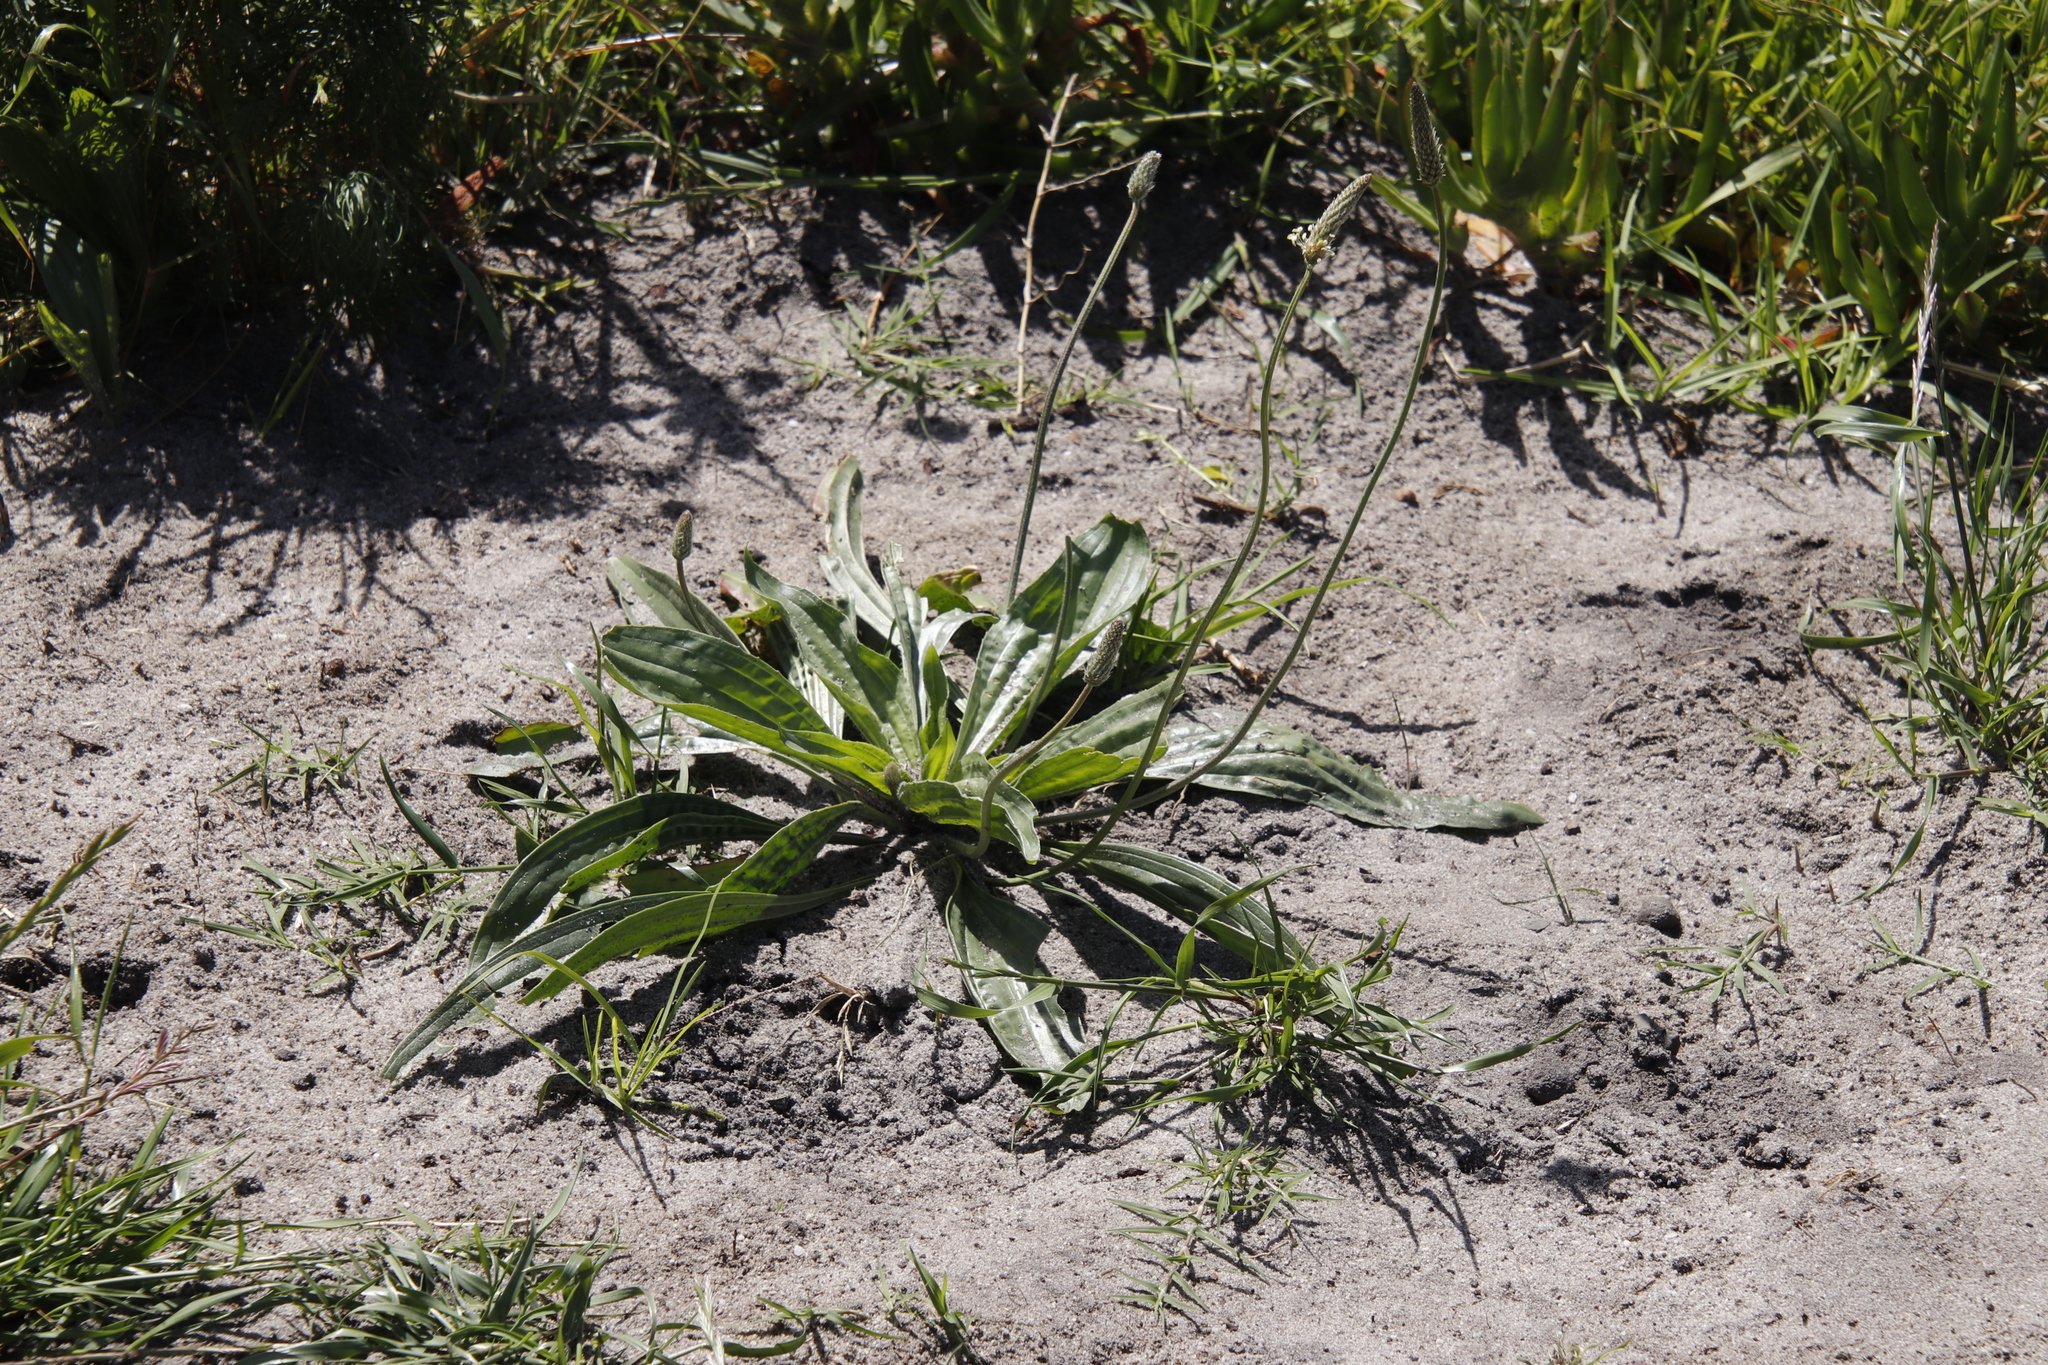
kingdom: Plantae
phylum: Tracheophyta
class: Magnoliopsida
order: Lamiales
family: Plantaginaceae
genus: Plantago
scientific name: Plantago lanceolata
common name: Ribwort plantain
